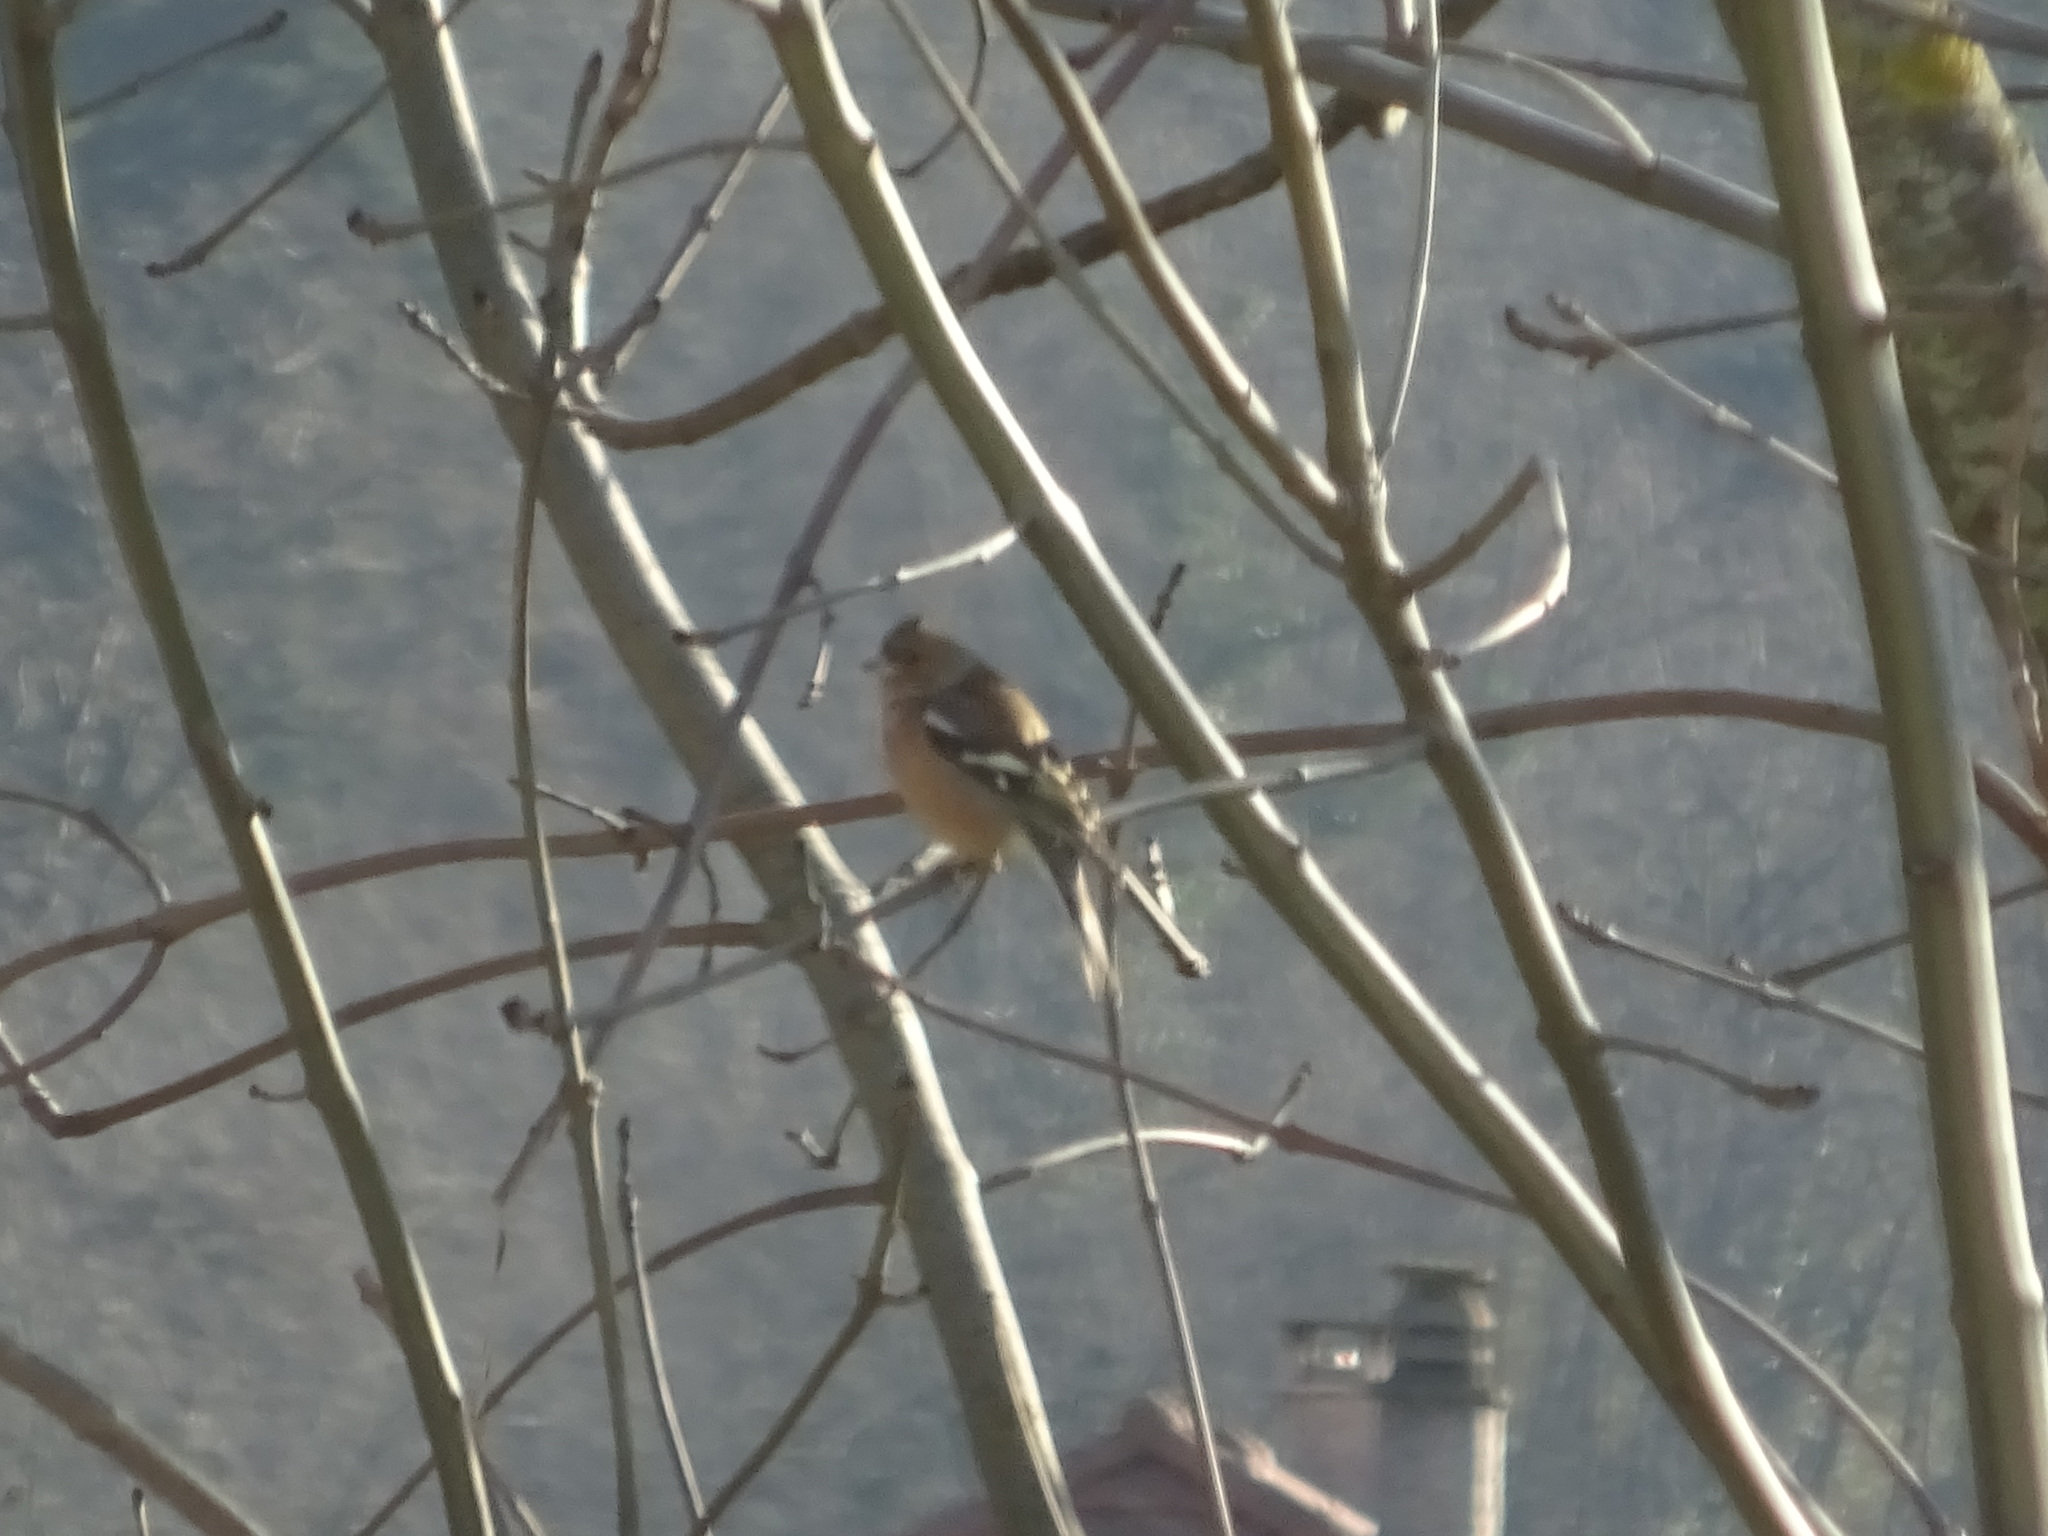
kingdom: Animalia
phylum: Chordata
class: Aves
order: Passeriformes
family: Fringillidae
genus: Fringilla
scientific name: Fringilla coelebs
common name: Common chaffinch
